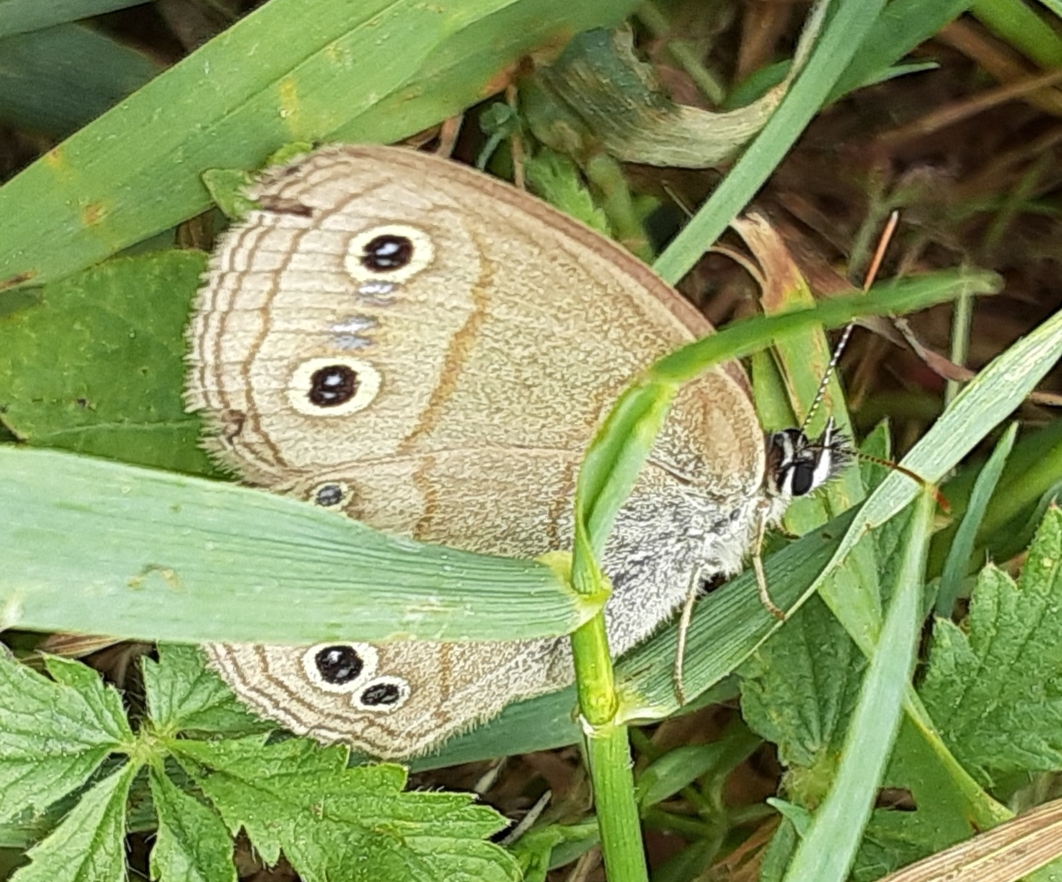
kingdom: Animalia
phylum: Arthropoda
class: Insecta
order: Lepidoptera
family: Nymphalidae
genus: Euptychia
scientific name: Euptychia cymela
